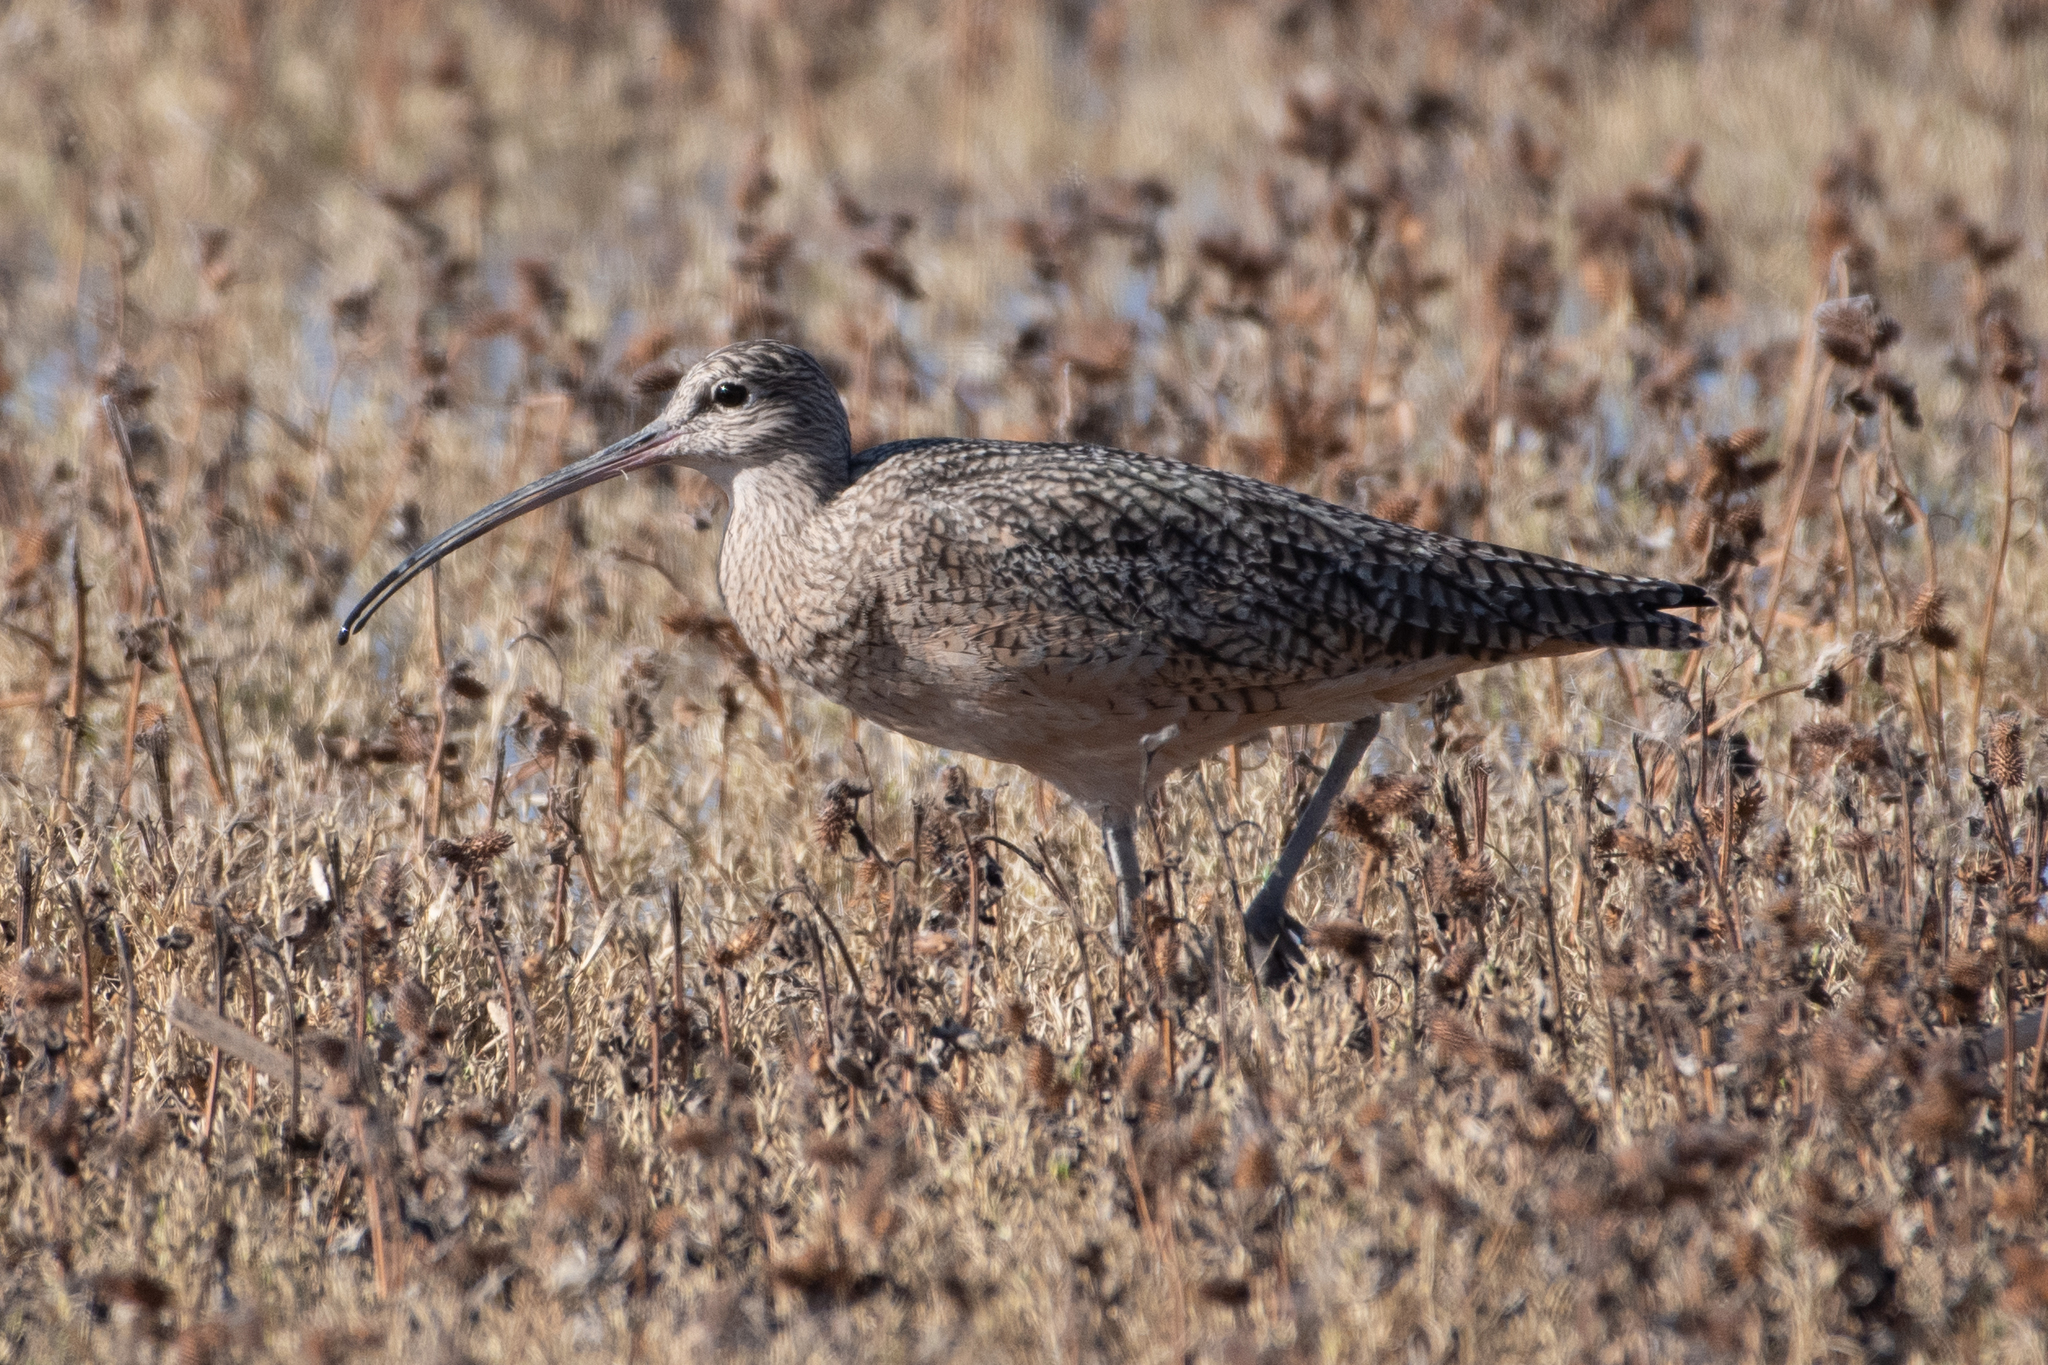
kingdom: Animalia
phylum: Chordata
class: Aves
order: Charadriiformes
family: Scolopacidae
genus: Numenius
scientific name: Numenius americanus
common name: Long-billed curlew
